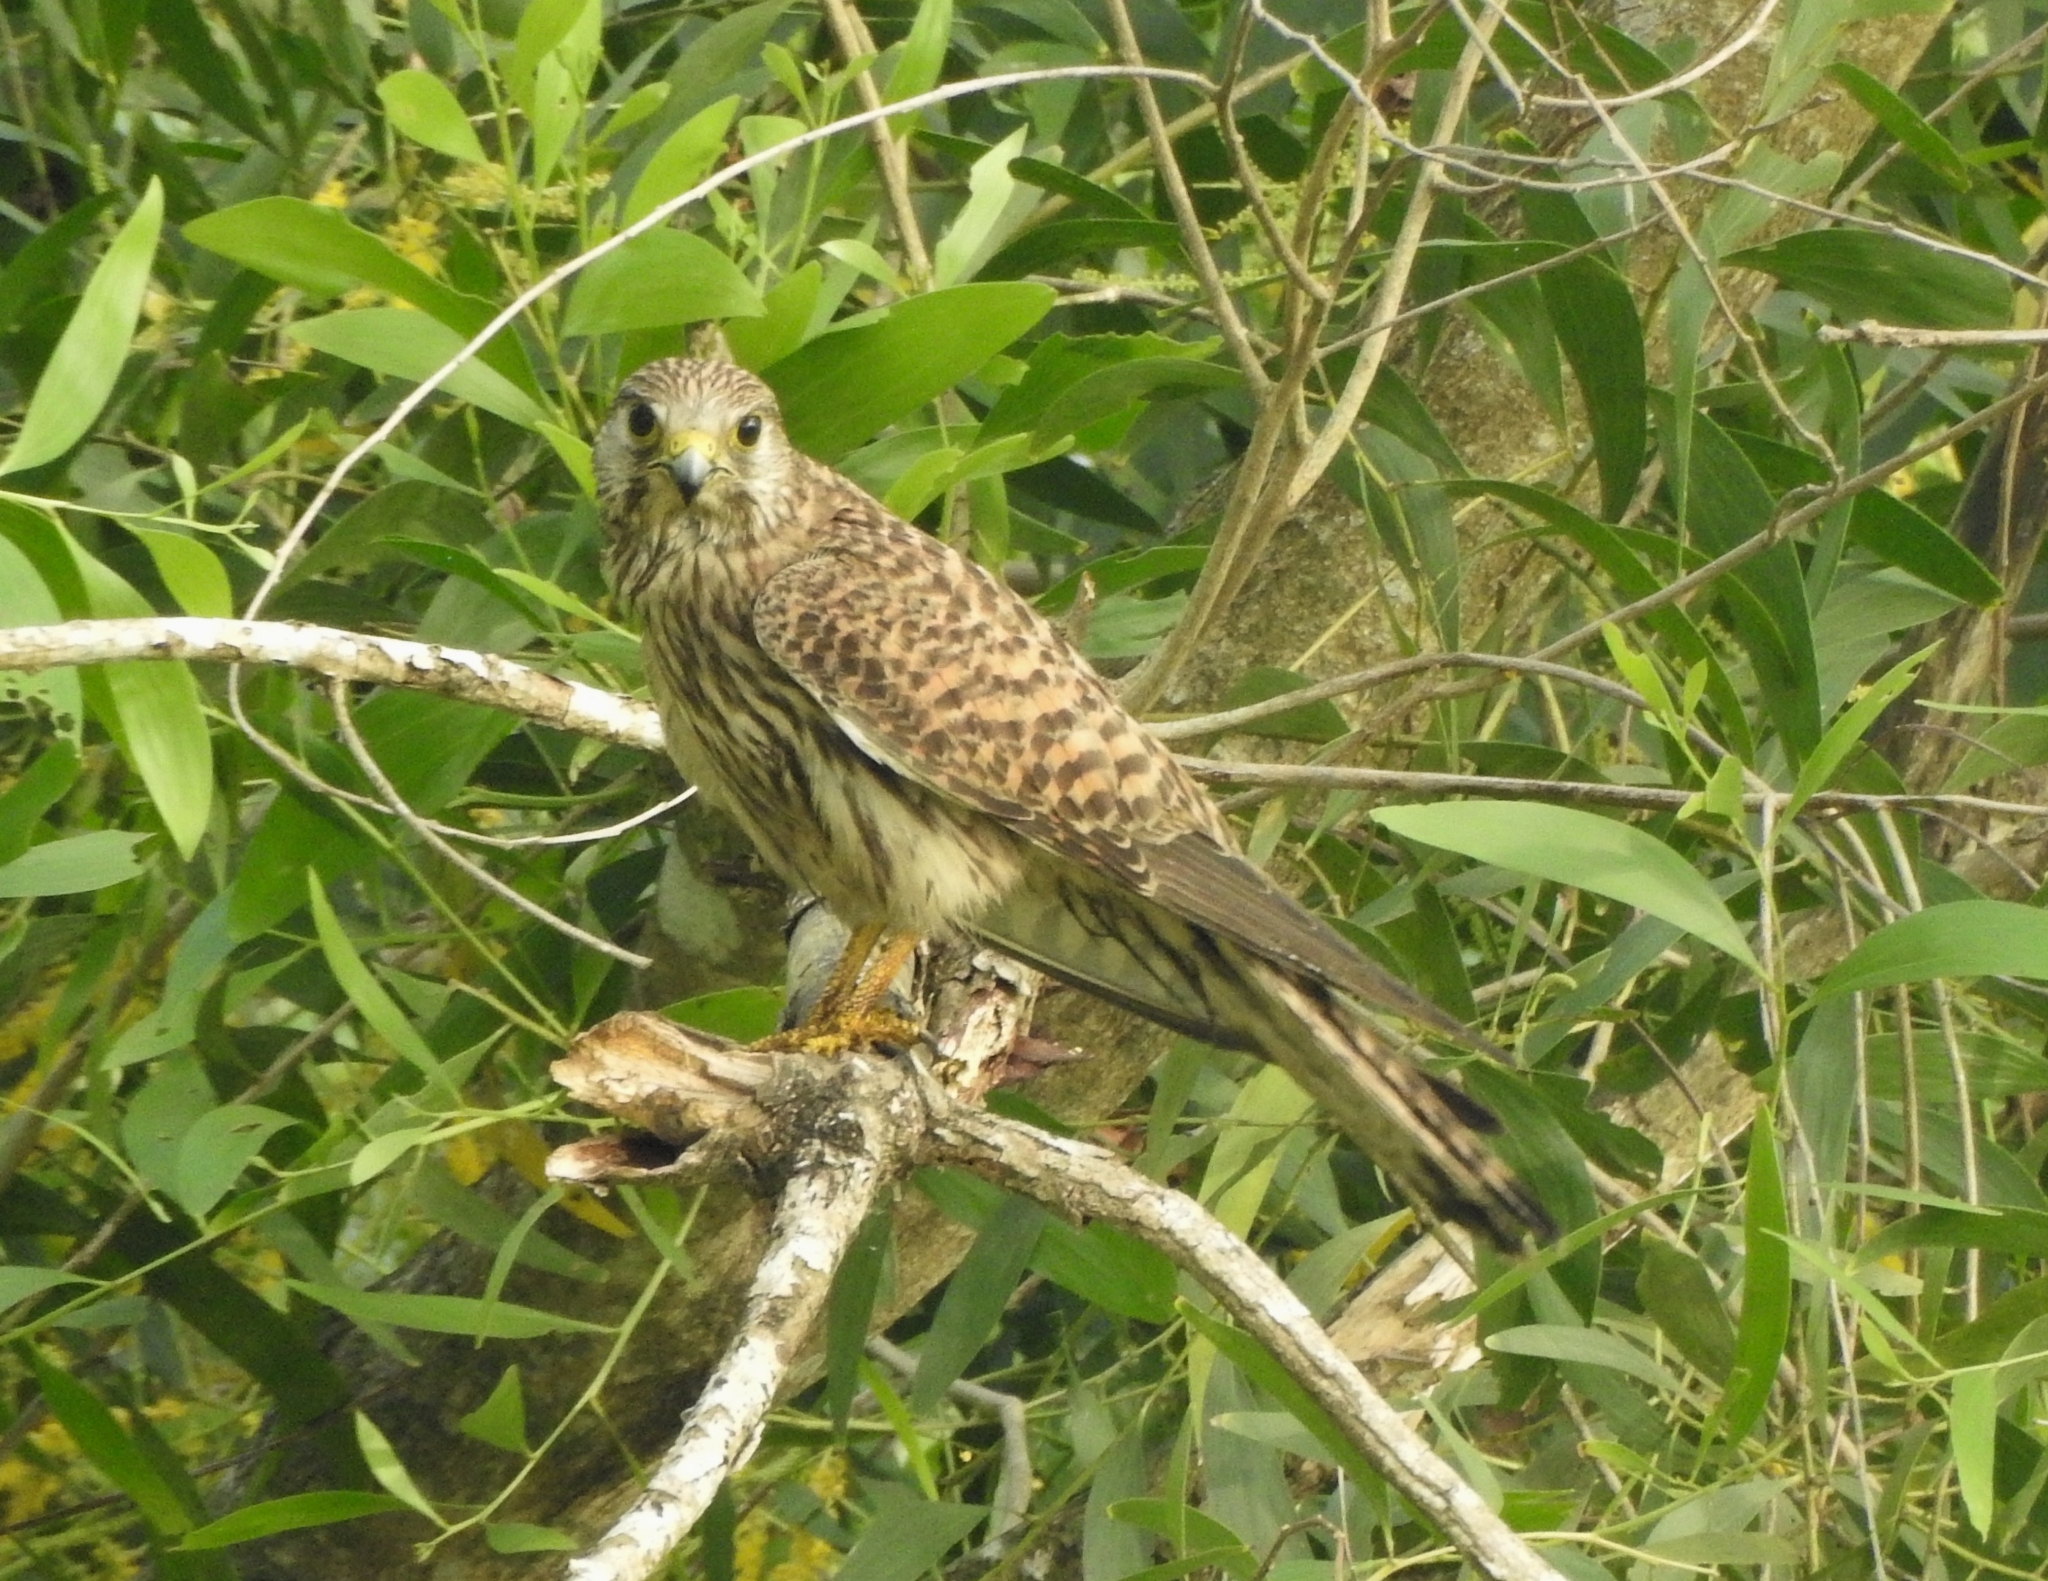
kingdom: Animalia
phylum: Chordata
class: Aves
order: Falconiformes
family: Falconidae
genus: Falco
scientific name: Falco tinnunculus
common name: Common kestrel
